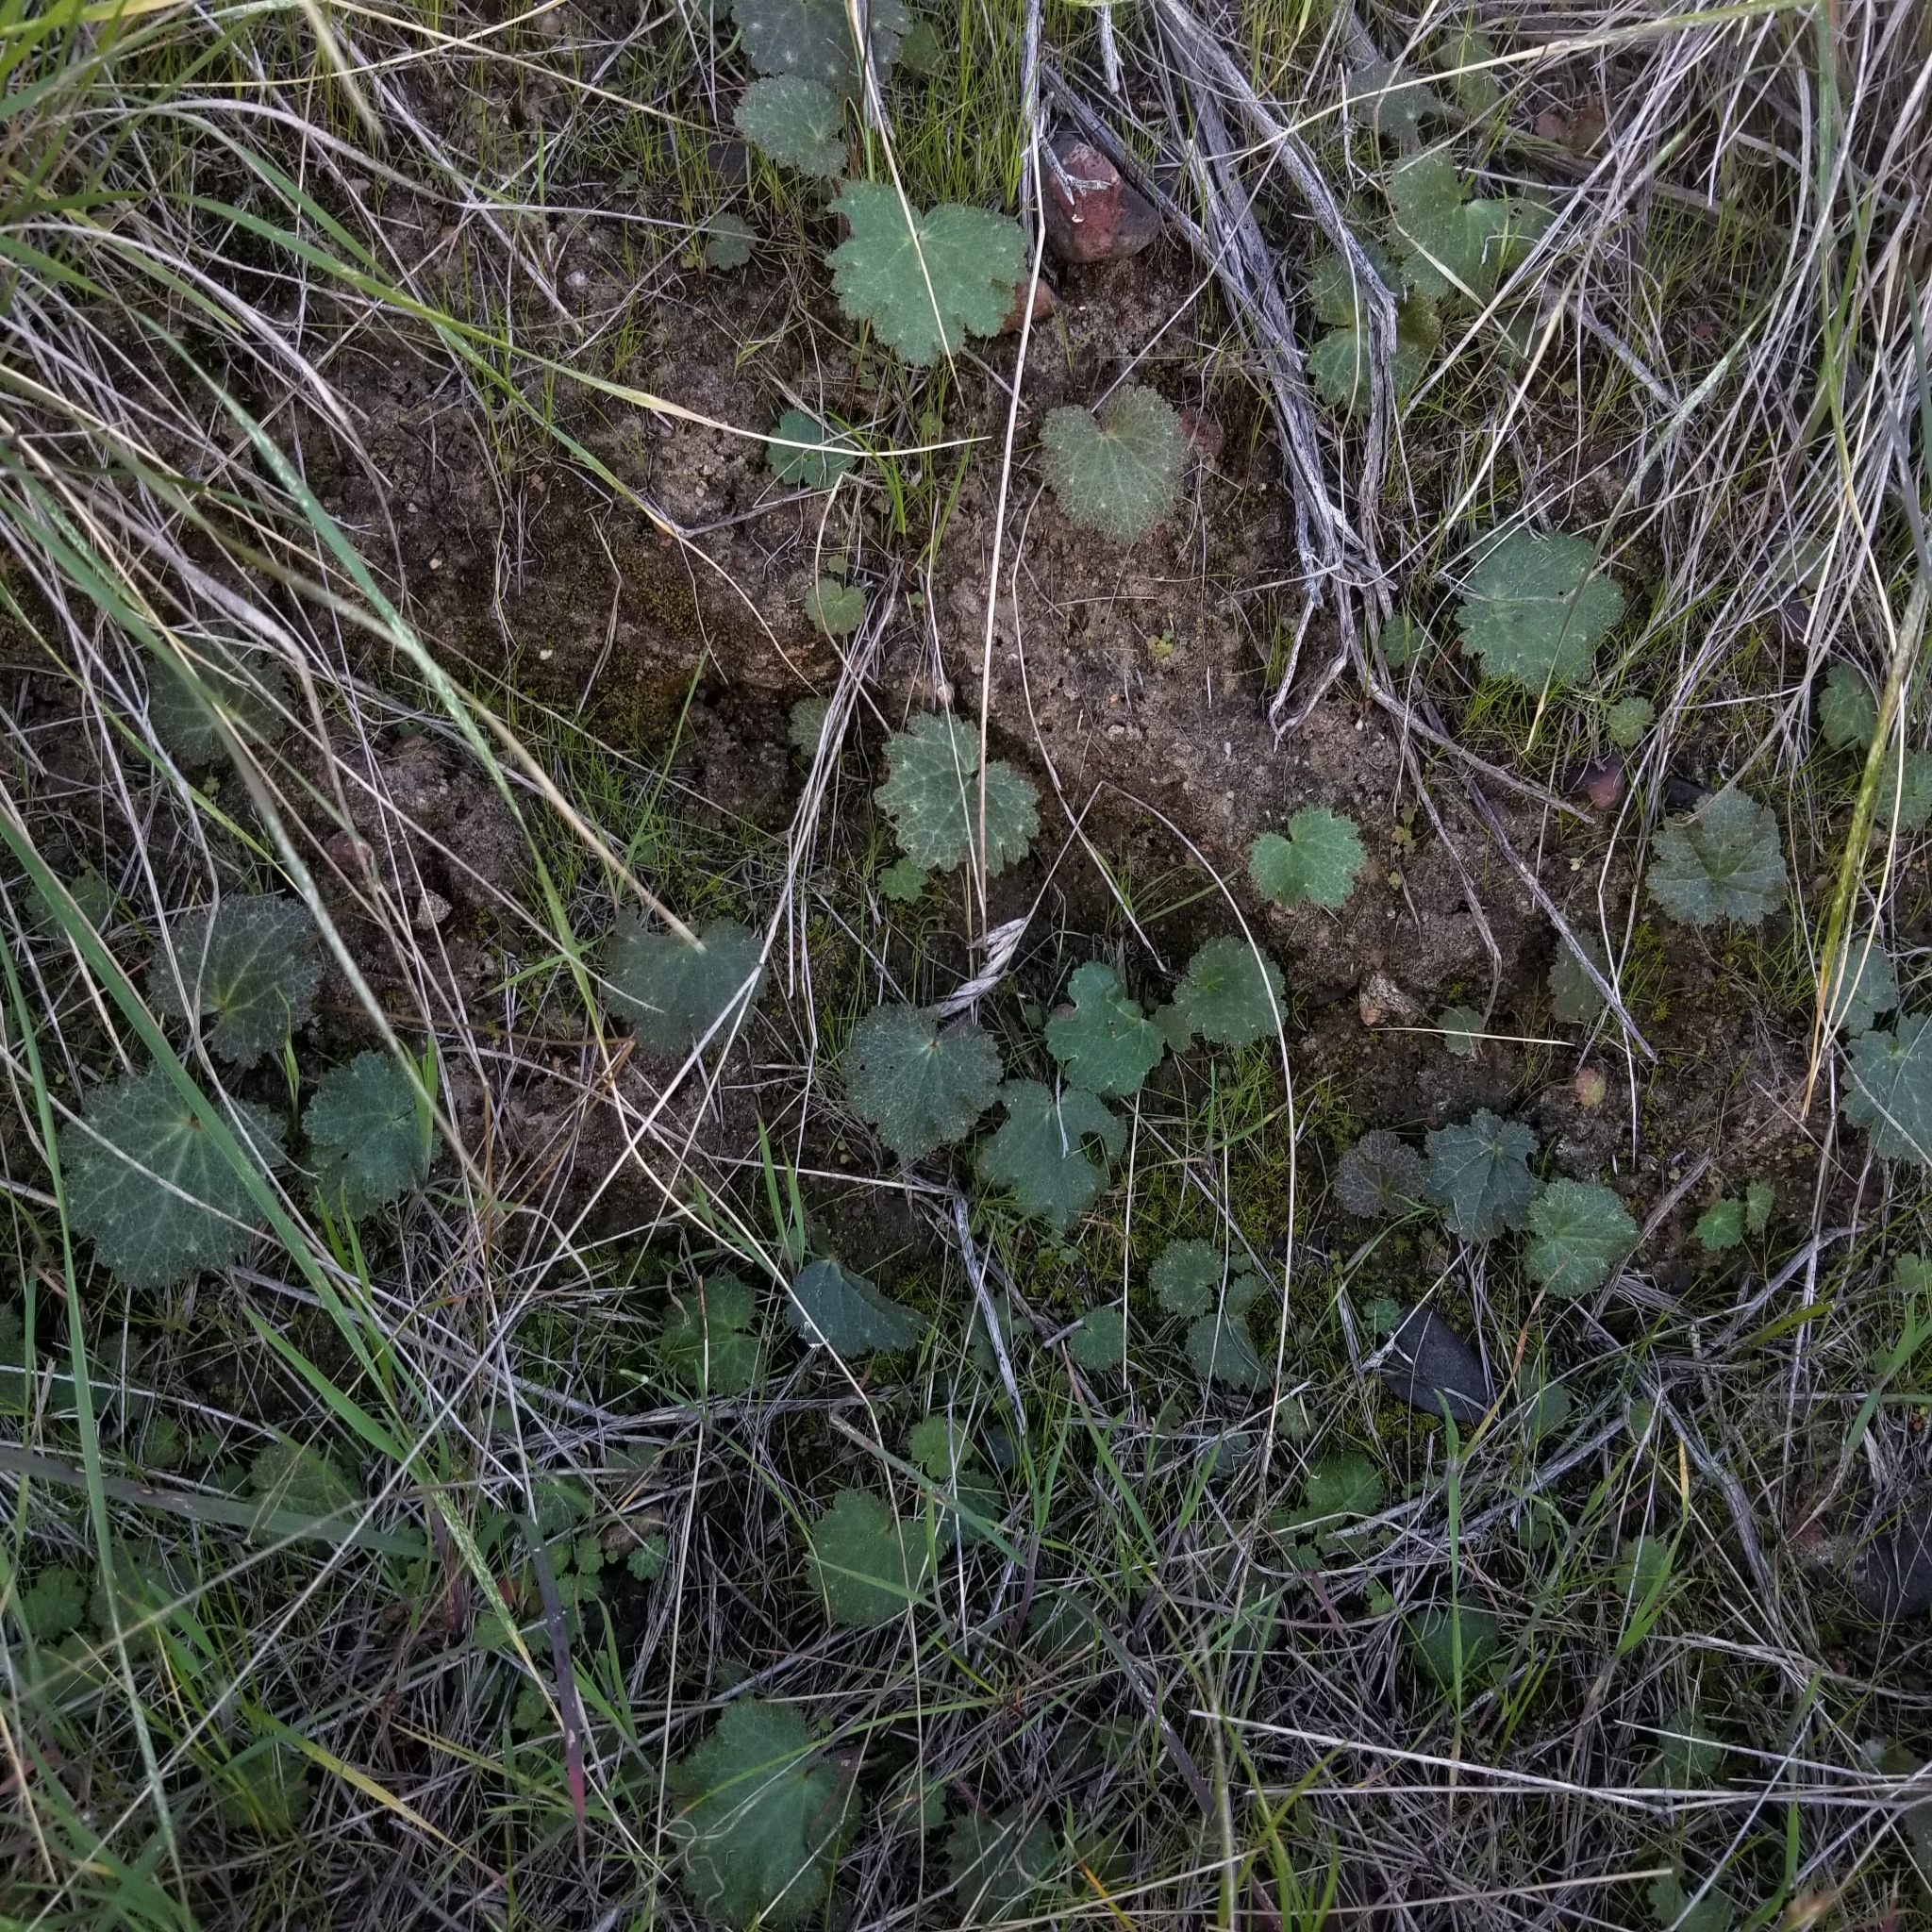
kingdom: Plantae
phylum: Tracheophyta
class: Magnoliopsida
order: Saxifragales
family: Saxifragaceae
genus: Jepsonia
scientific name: Jepsonia parryi
